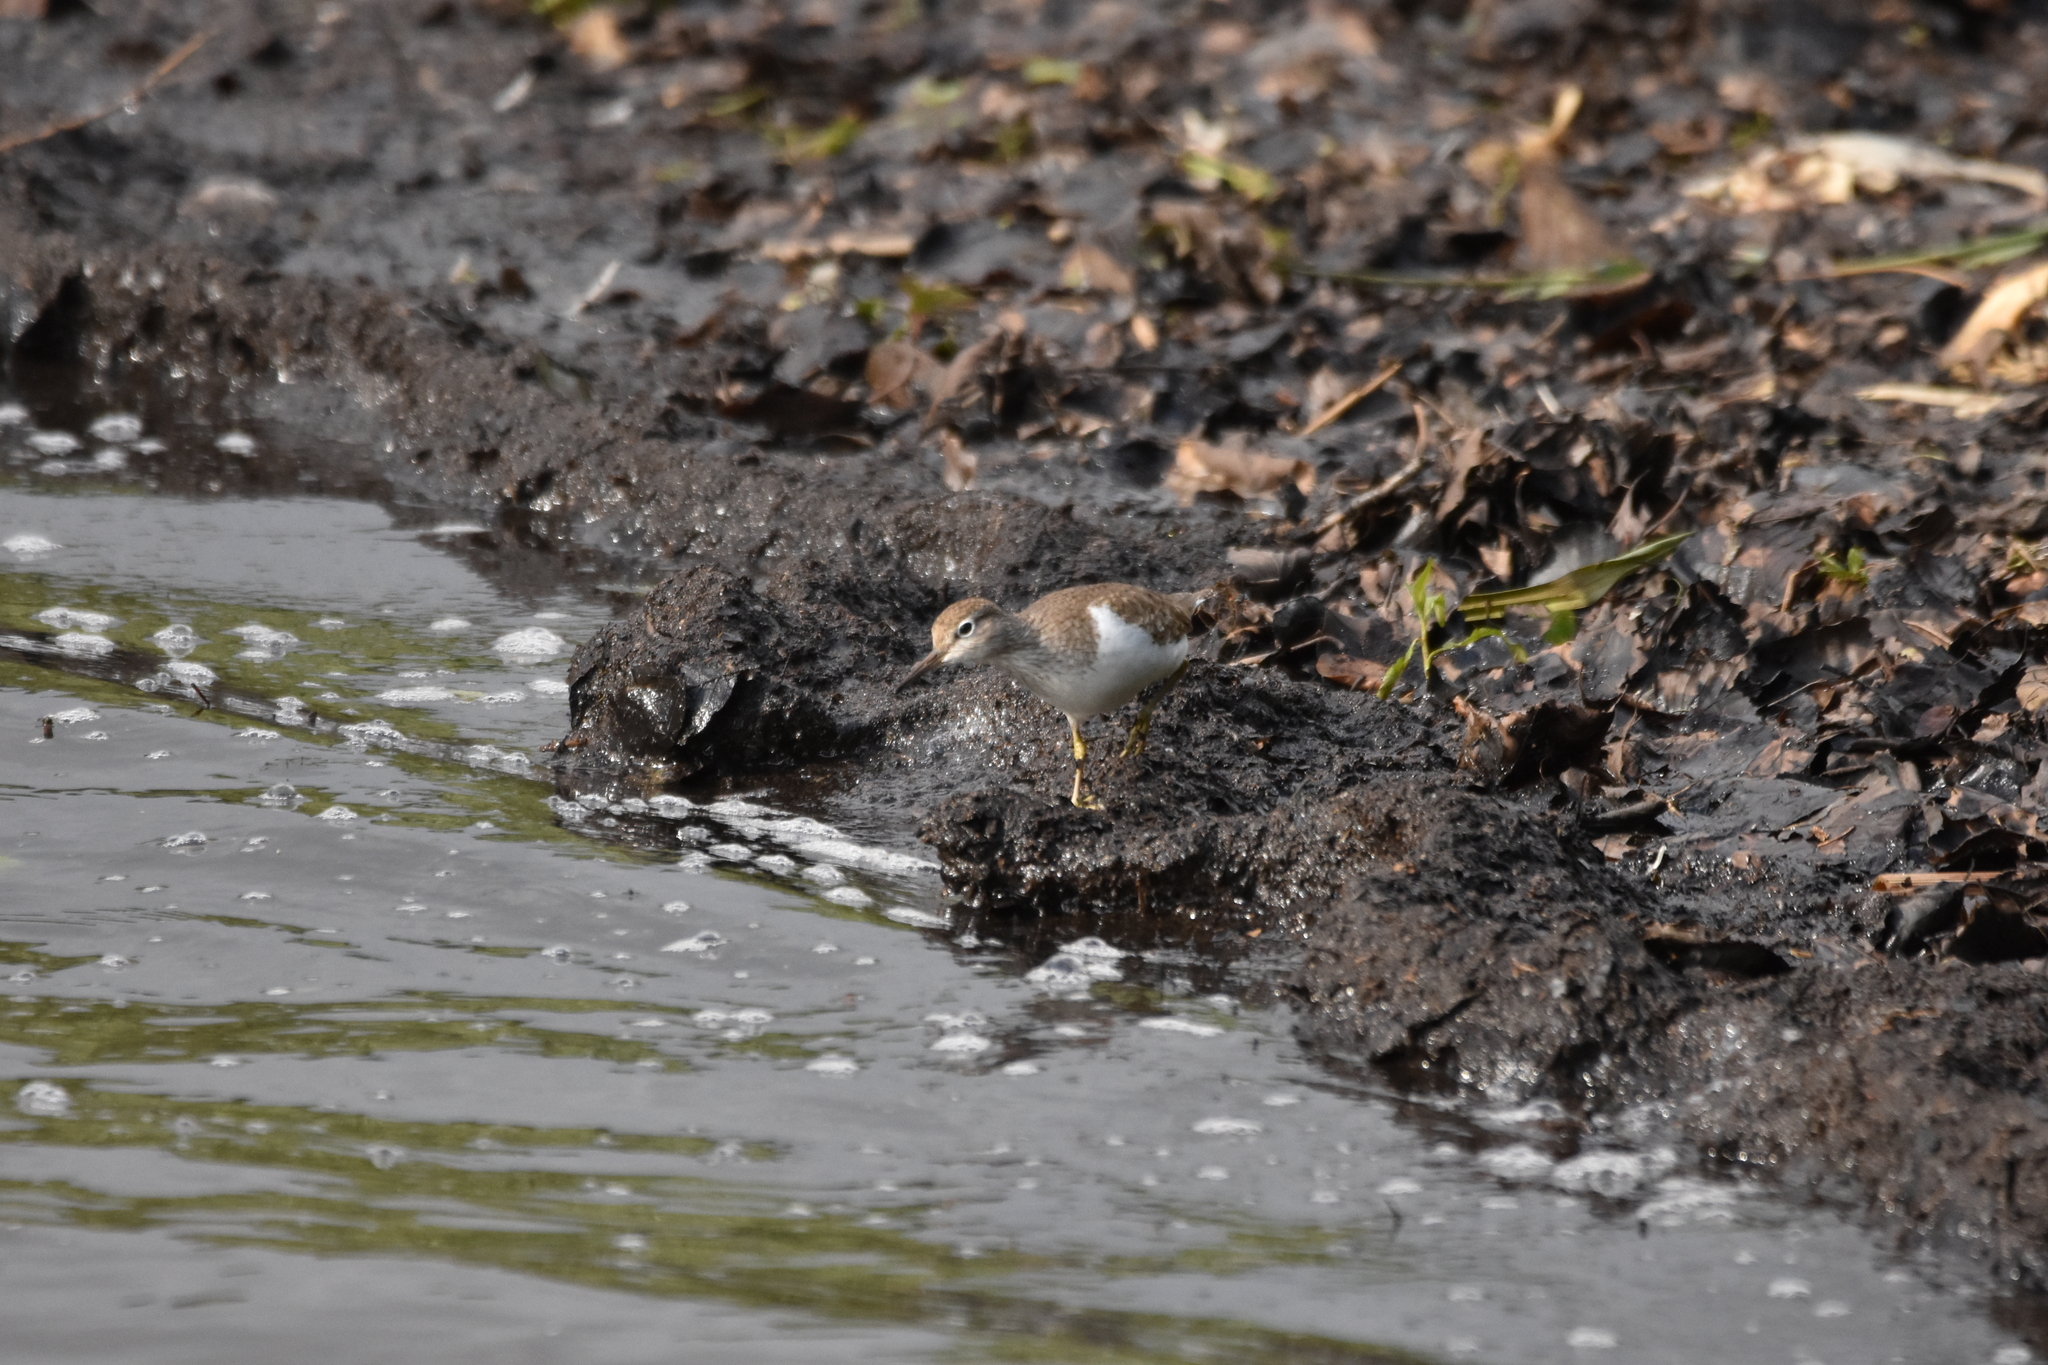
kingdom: Animalia
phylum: Chordata
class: Aves
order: Charadriiformes
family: Scolopacidae
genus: Actitis
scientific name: Actitis hypoleucos
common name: Common sandpiper
